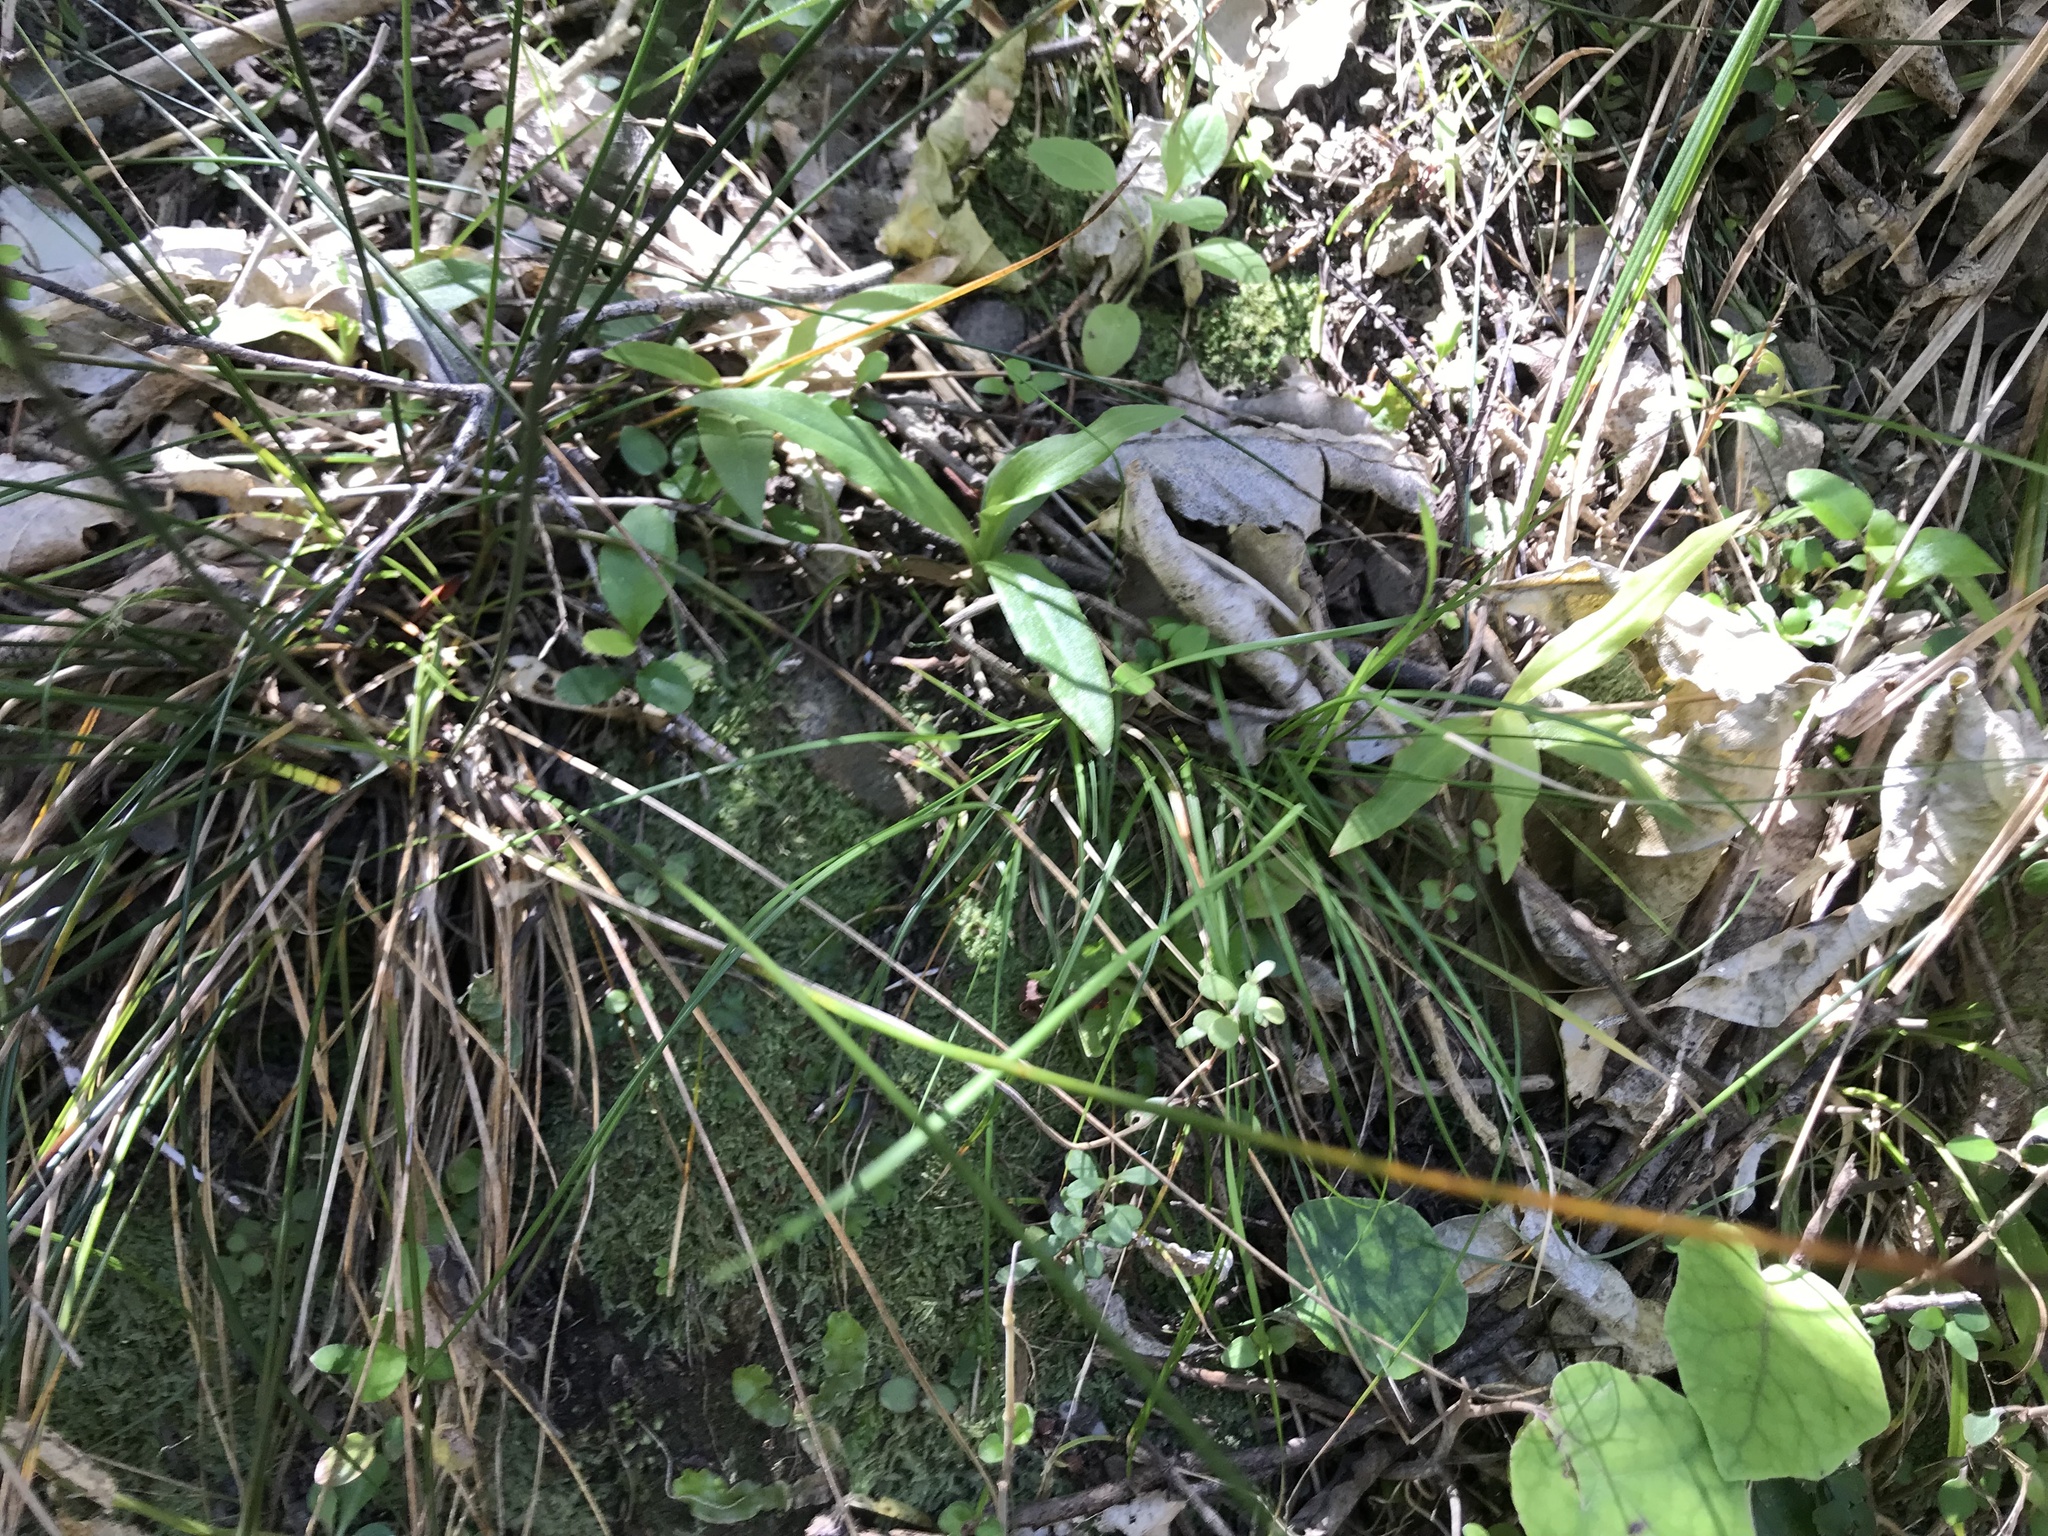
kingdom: Plantae
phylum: Tracheophyta
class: Liliopsida
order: Asparagales
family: Orchidaceae
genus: Pterostylis
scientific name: Pterostylis montana
